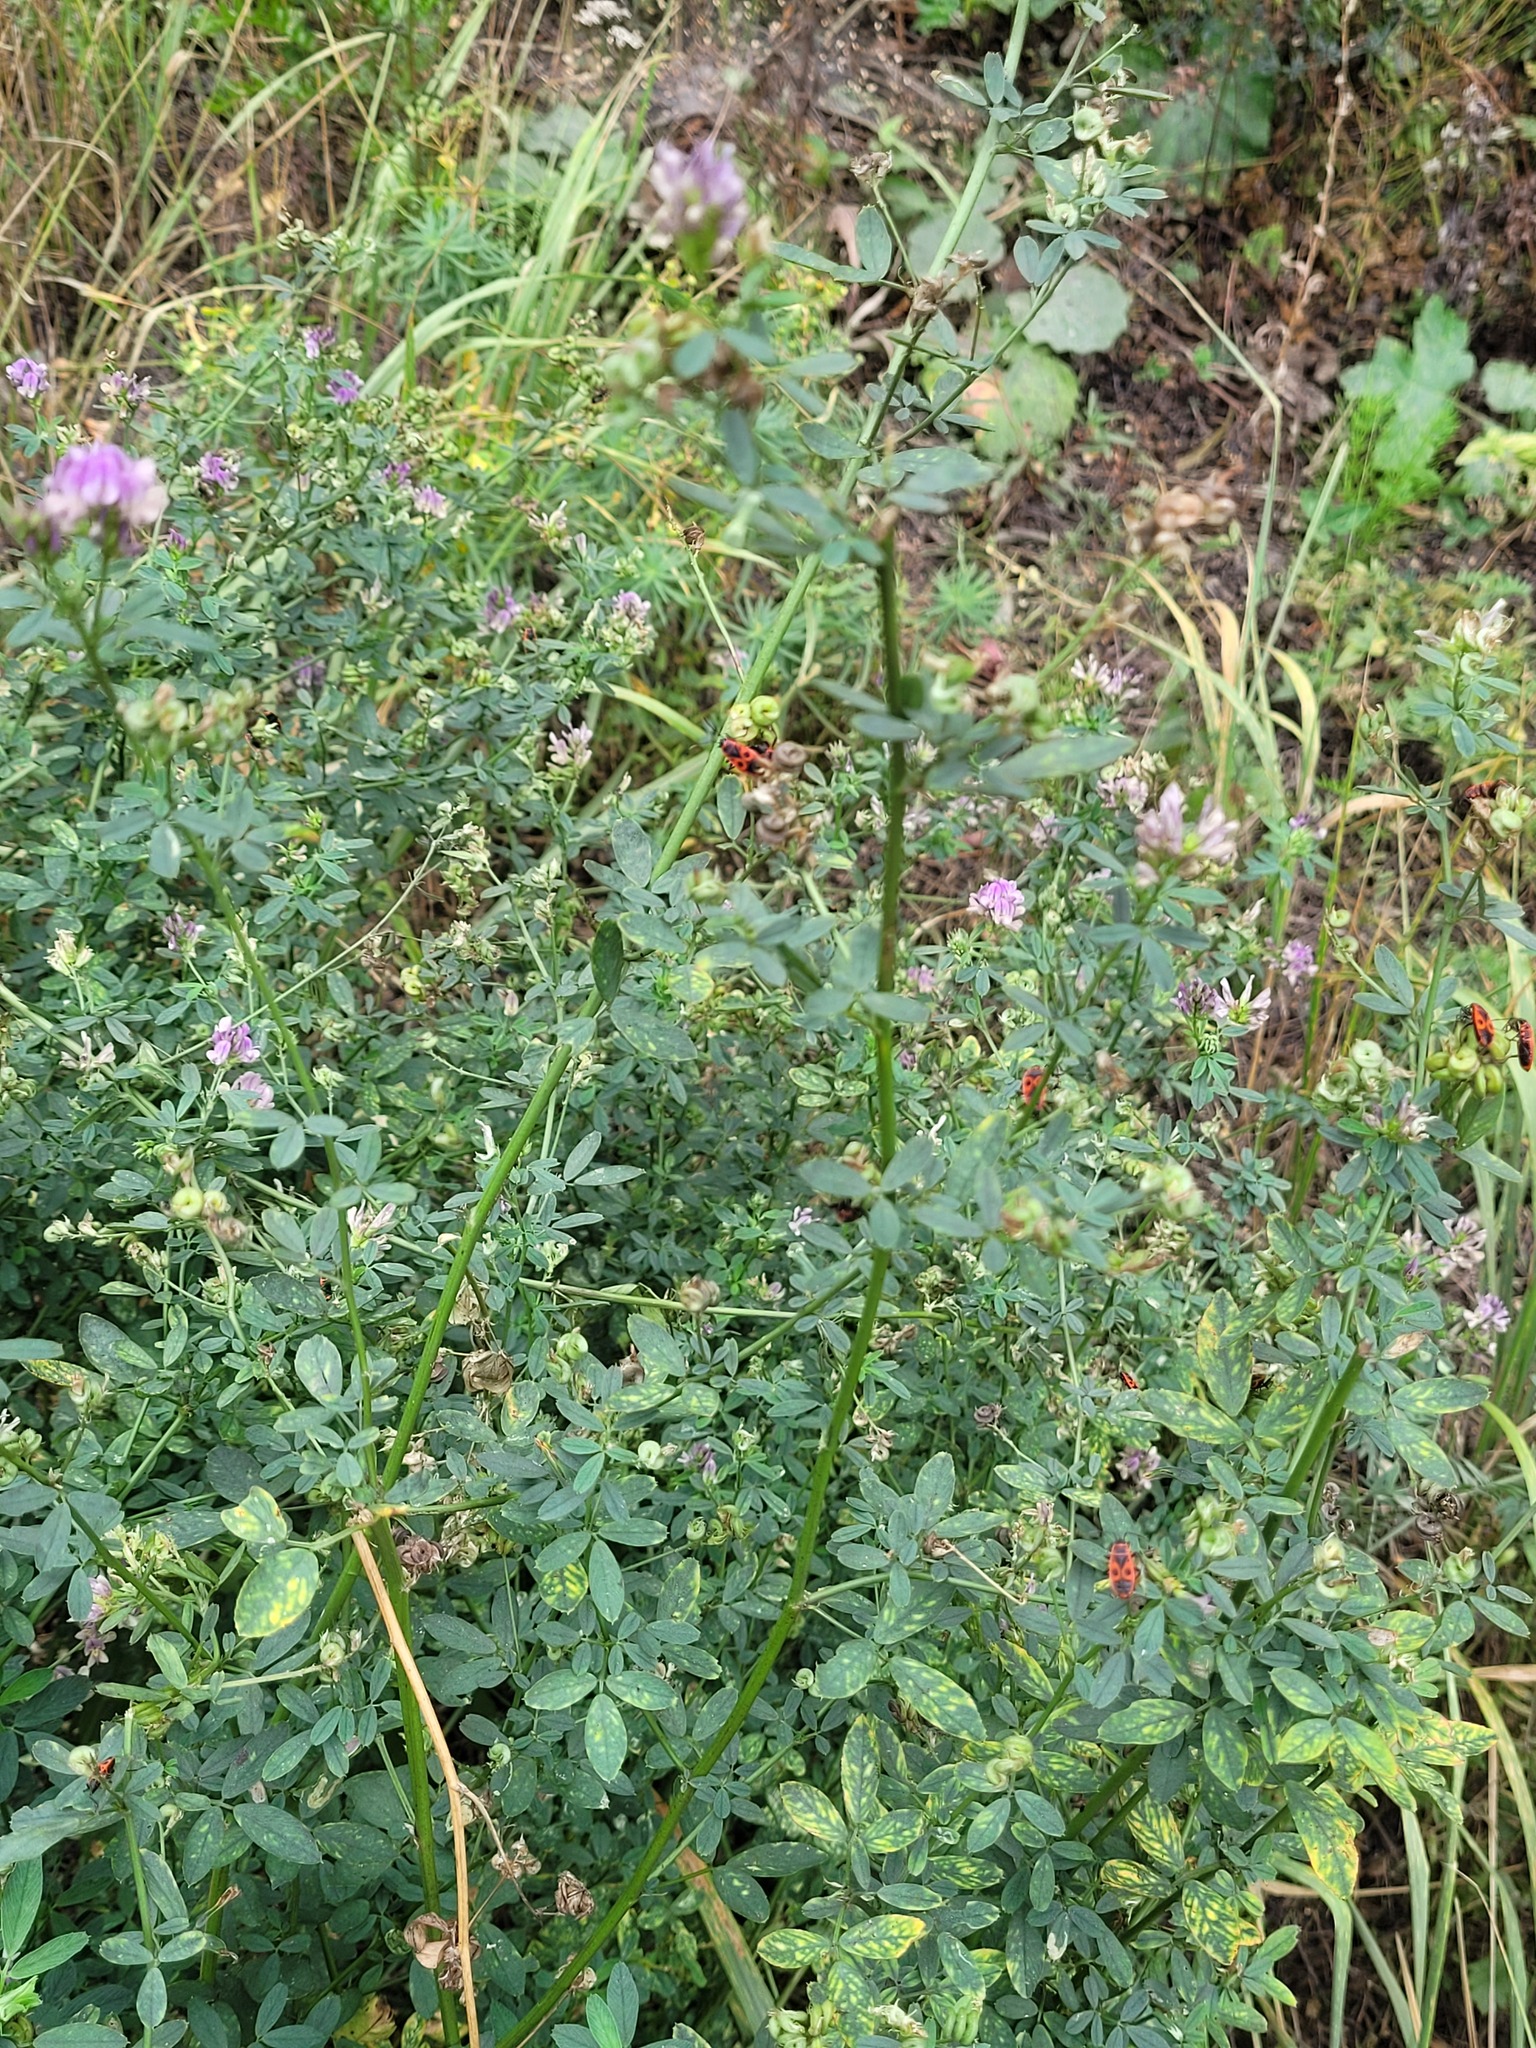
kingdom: Plantae
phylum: Tracheophyta
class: Magnoliopsida
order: Fabales
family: Fabaceae
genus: Medicago
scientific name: Medicago varia
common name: Sand lucerne
